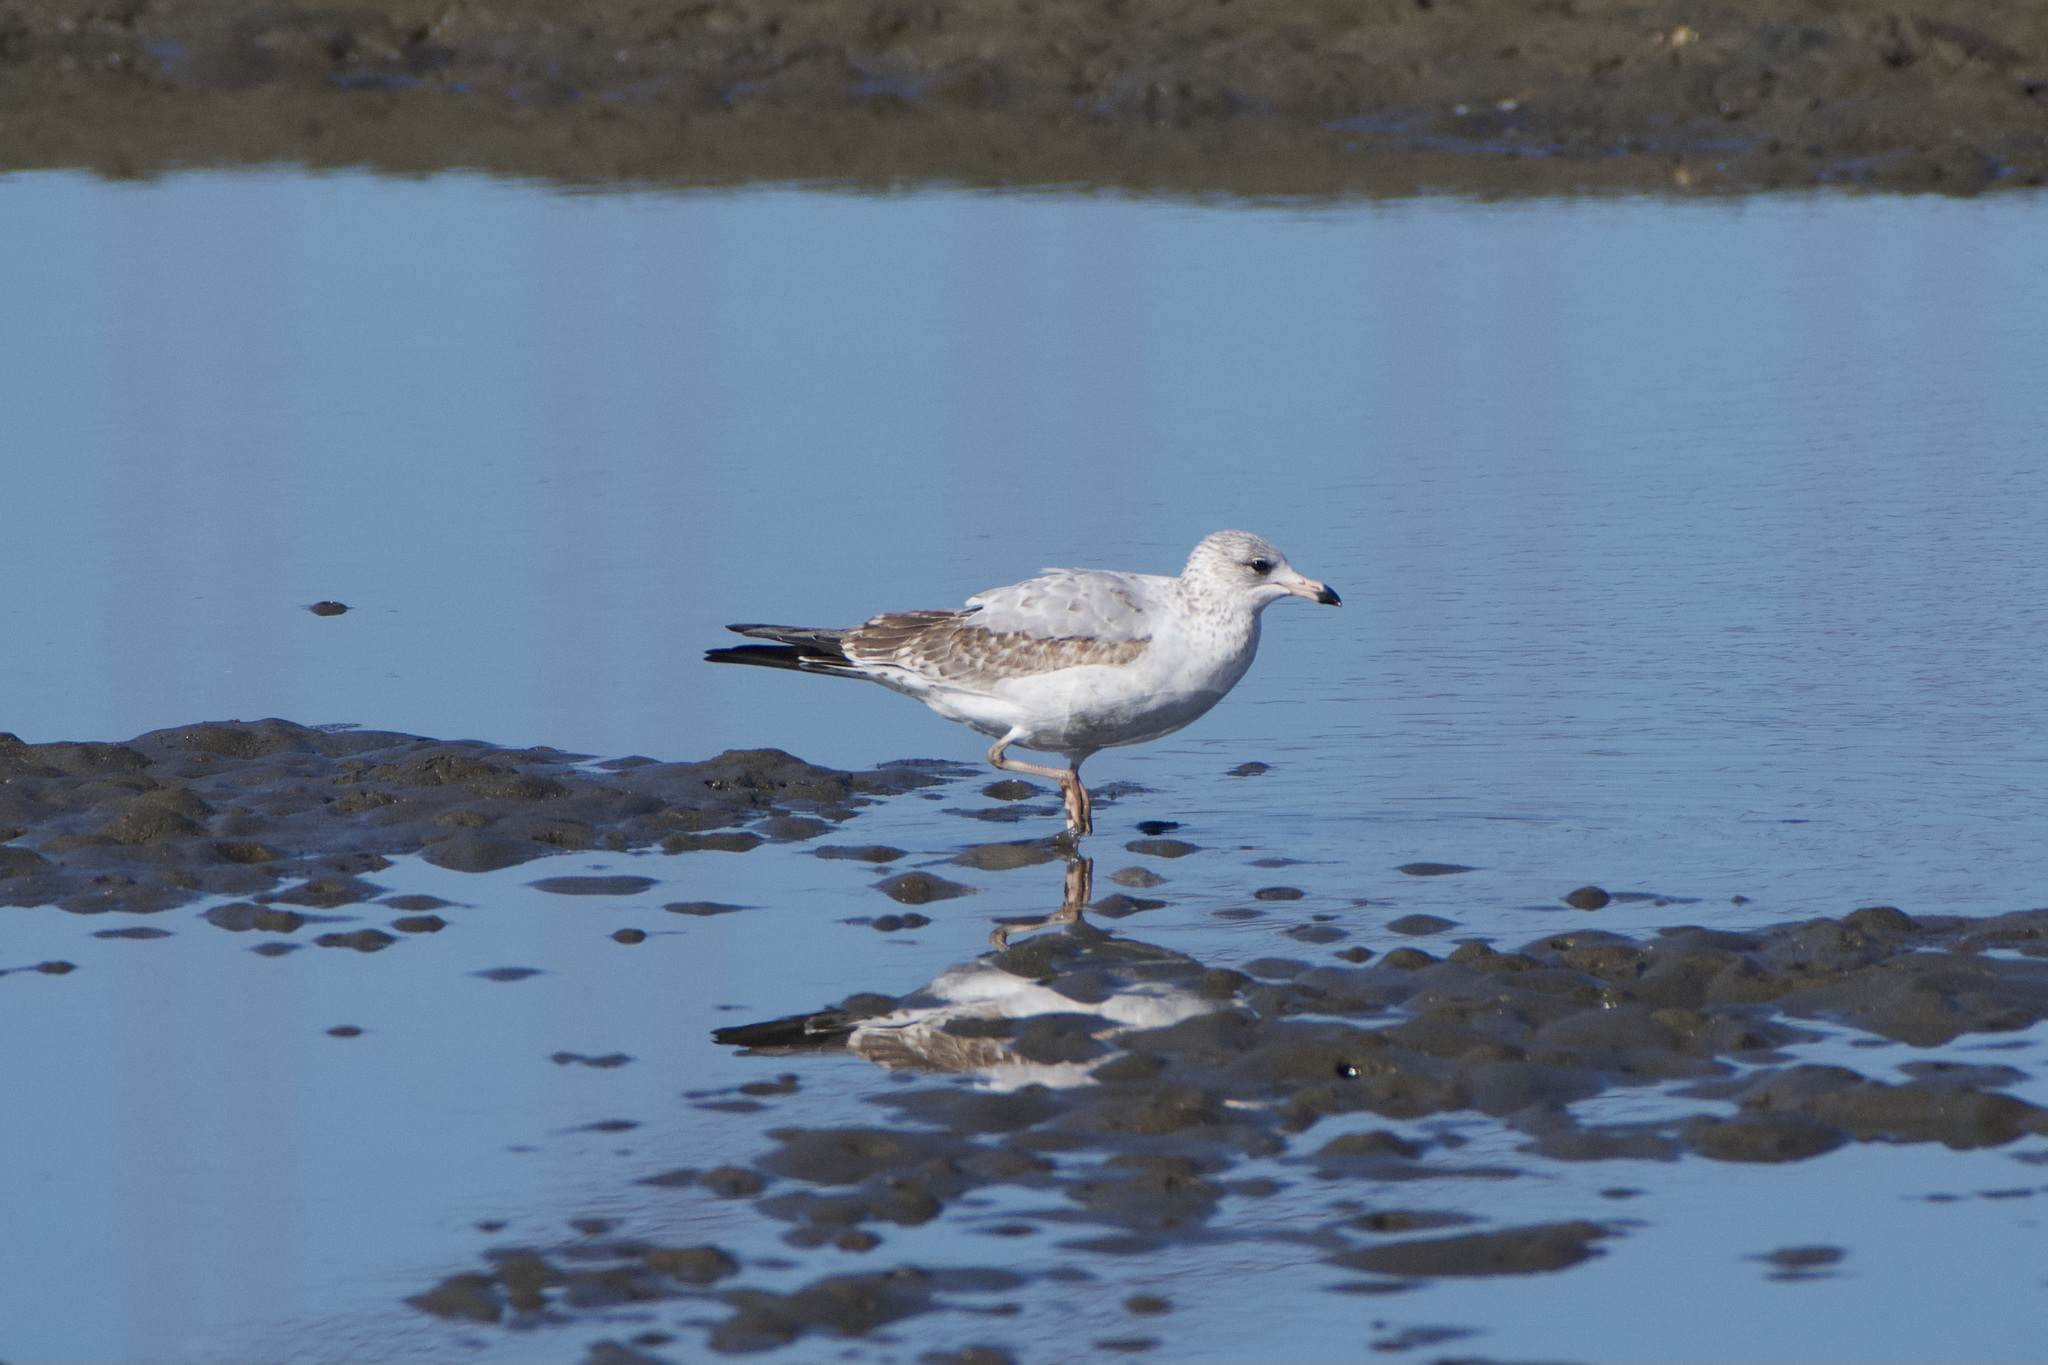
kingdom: Animalia
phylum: Chordata
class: Aves
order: Charadriiformes
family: Laridae
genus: Larus
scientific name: Larus delawarensis
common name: Ring-billed gull
